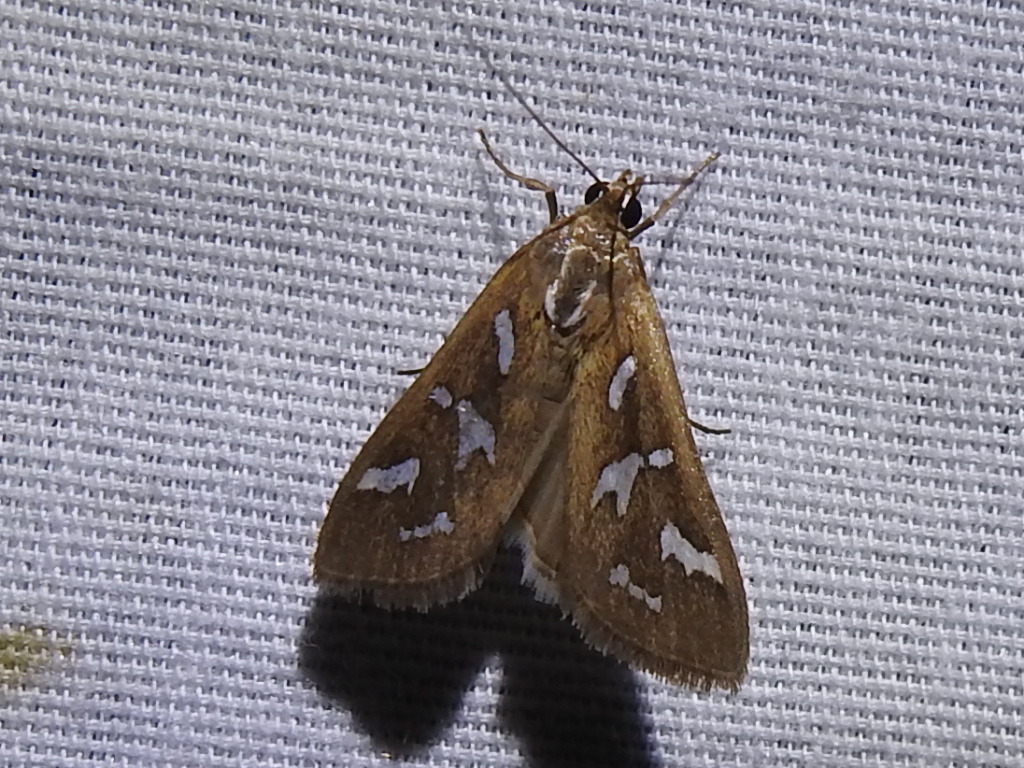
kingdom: Animalia
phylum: Arthropoda
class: Insecta
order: Lepidoptera
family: Crambidae
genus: Diastictis
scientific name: Diastictis fracturalis
